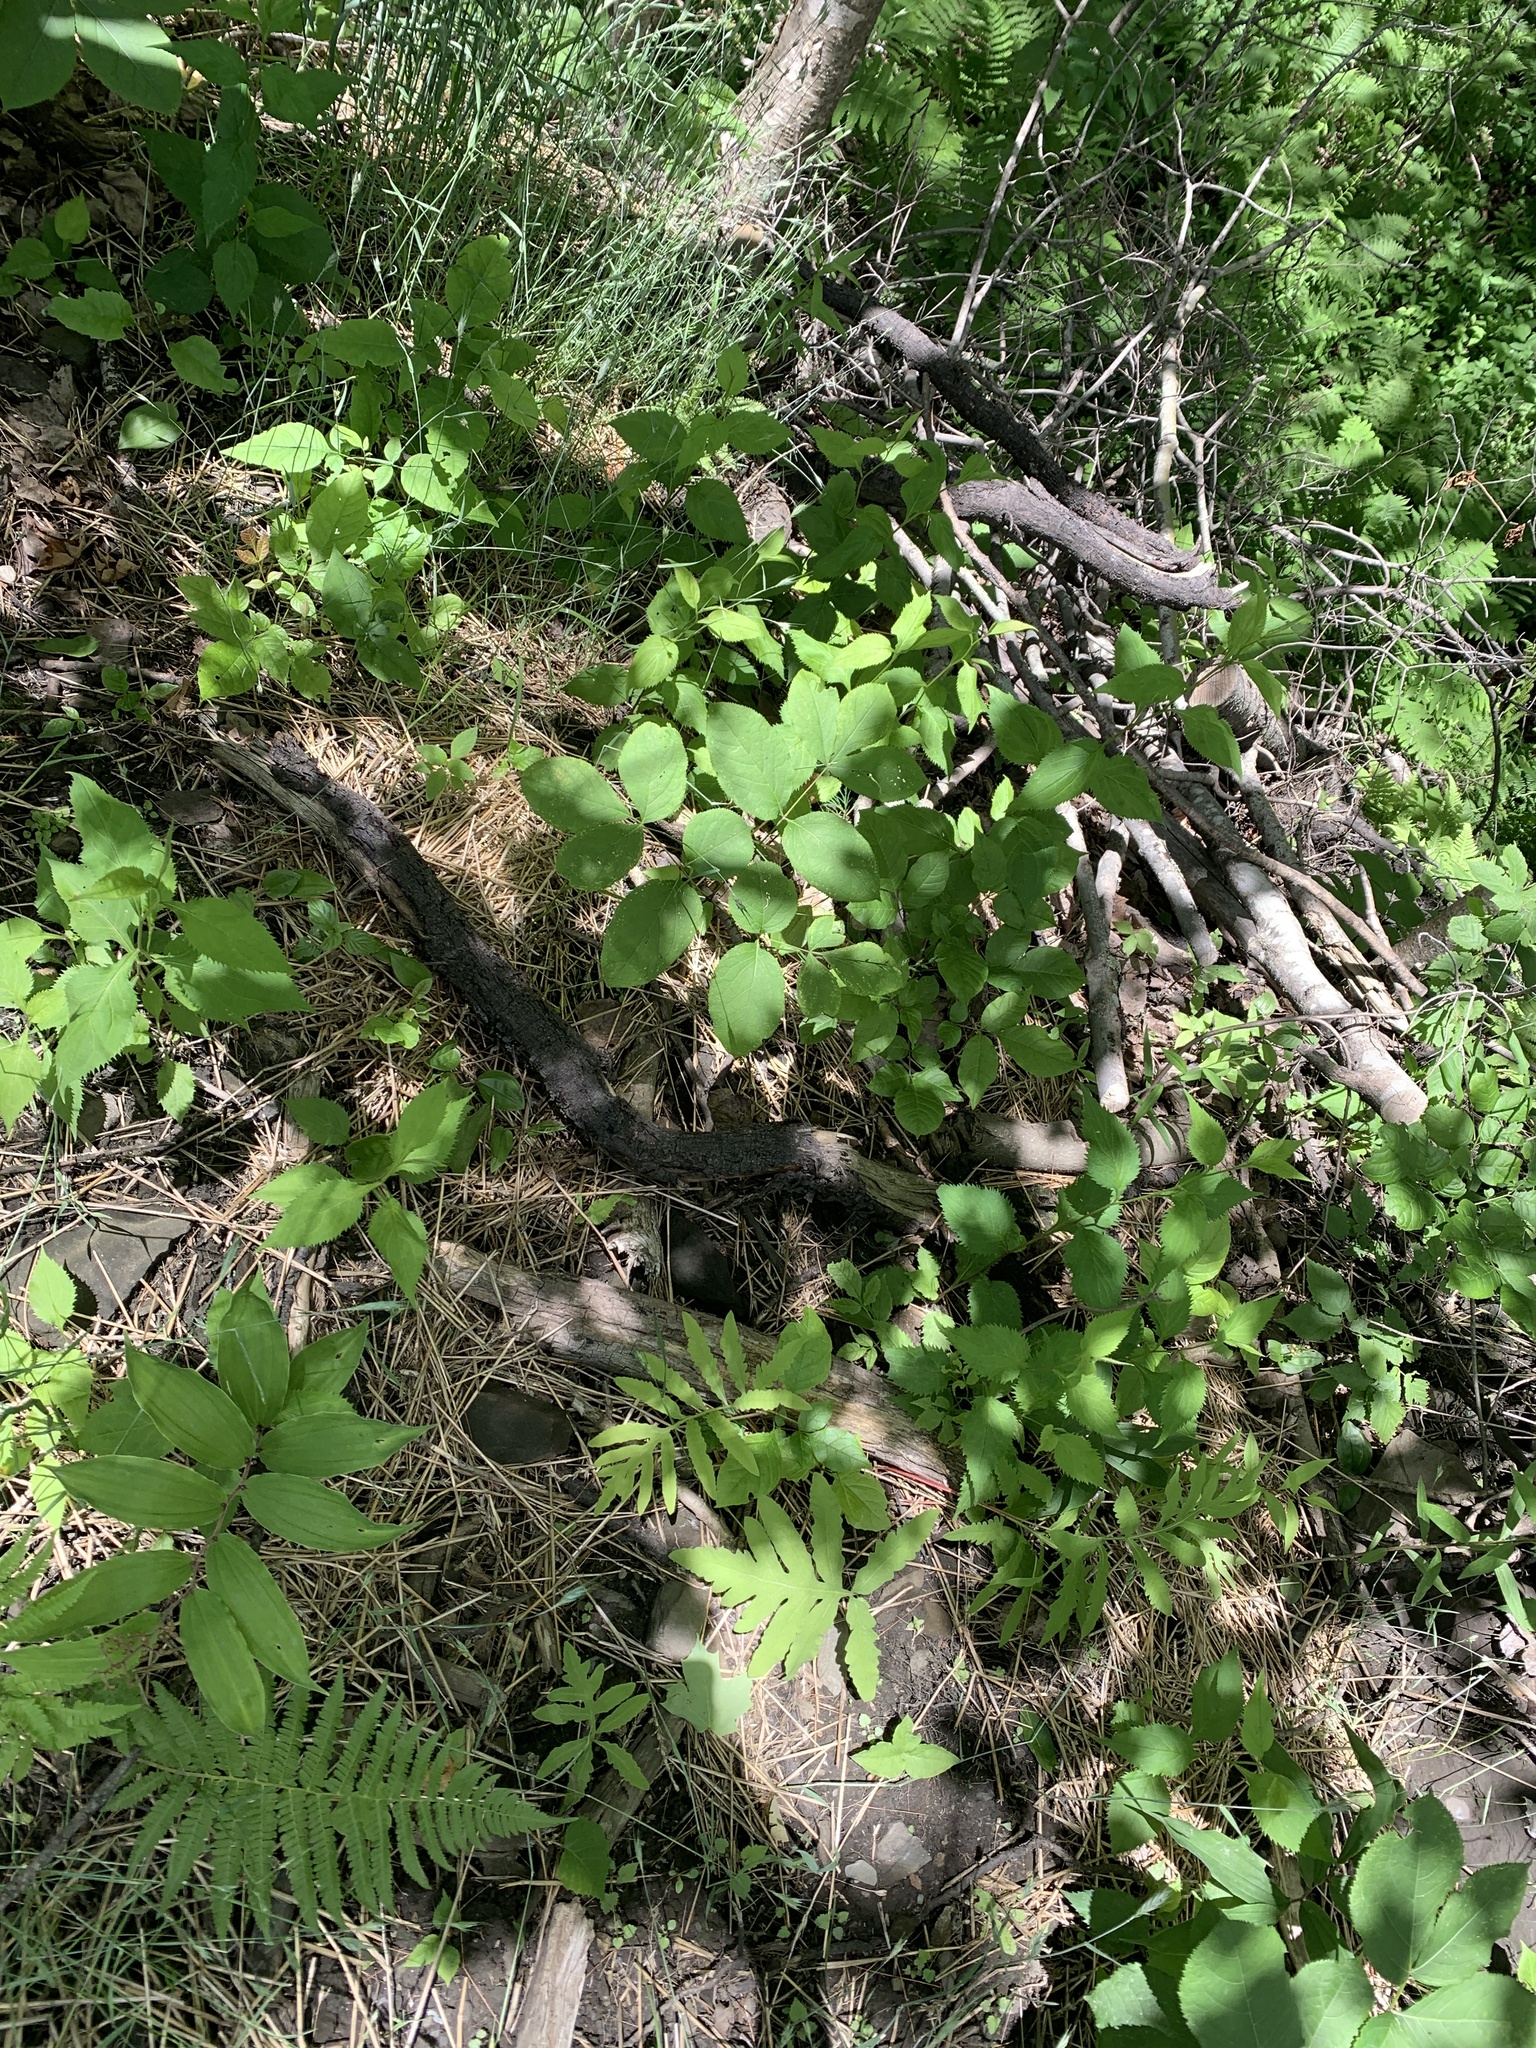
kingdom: Plantae
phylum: Tracheophyta
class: Magnoliopsida
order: Apiales
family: Araliaceae
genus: Aralia
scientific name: Aralia nudicaulis
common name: Wild sarsaparilla
